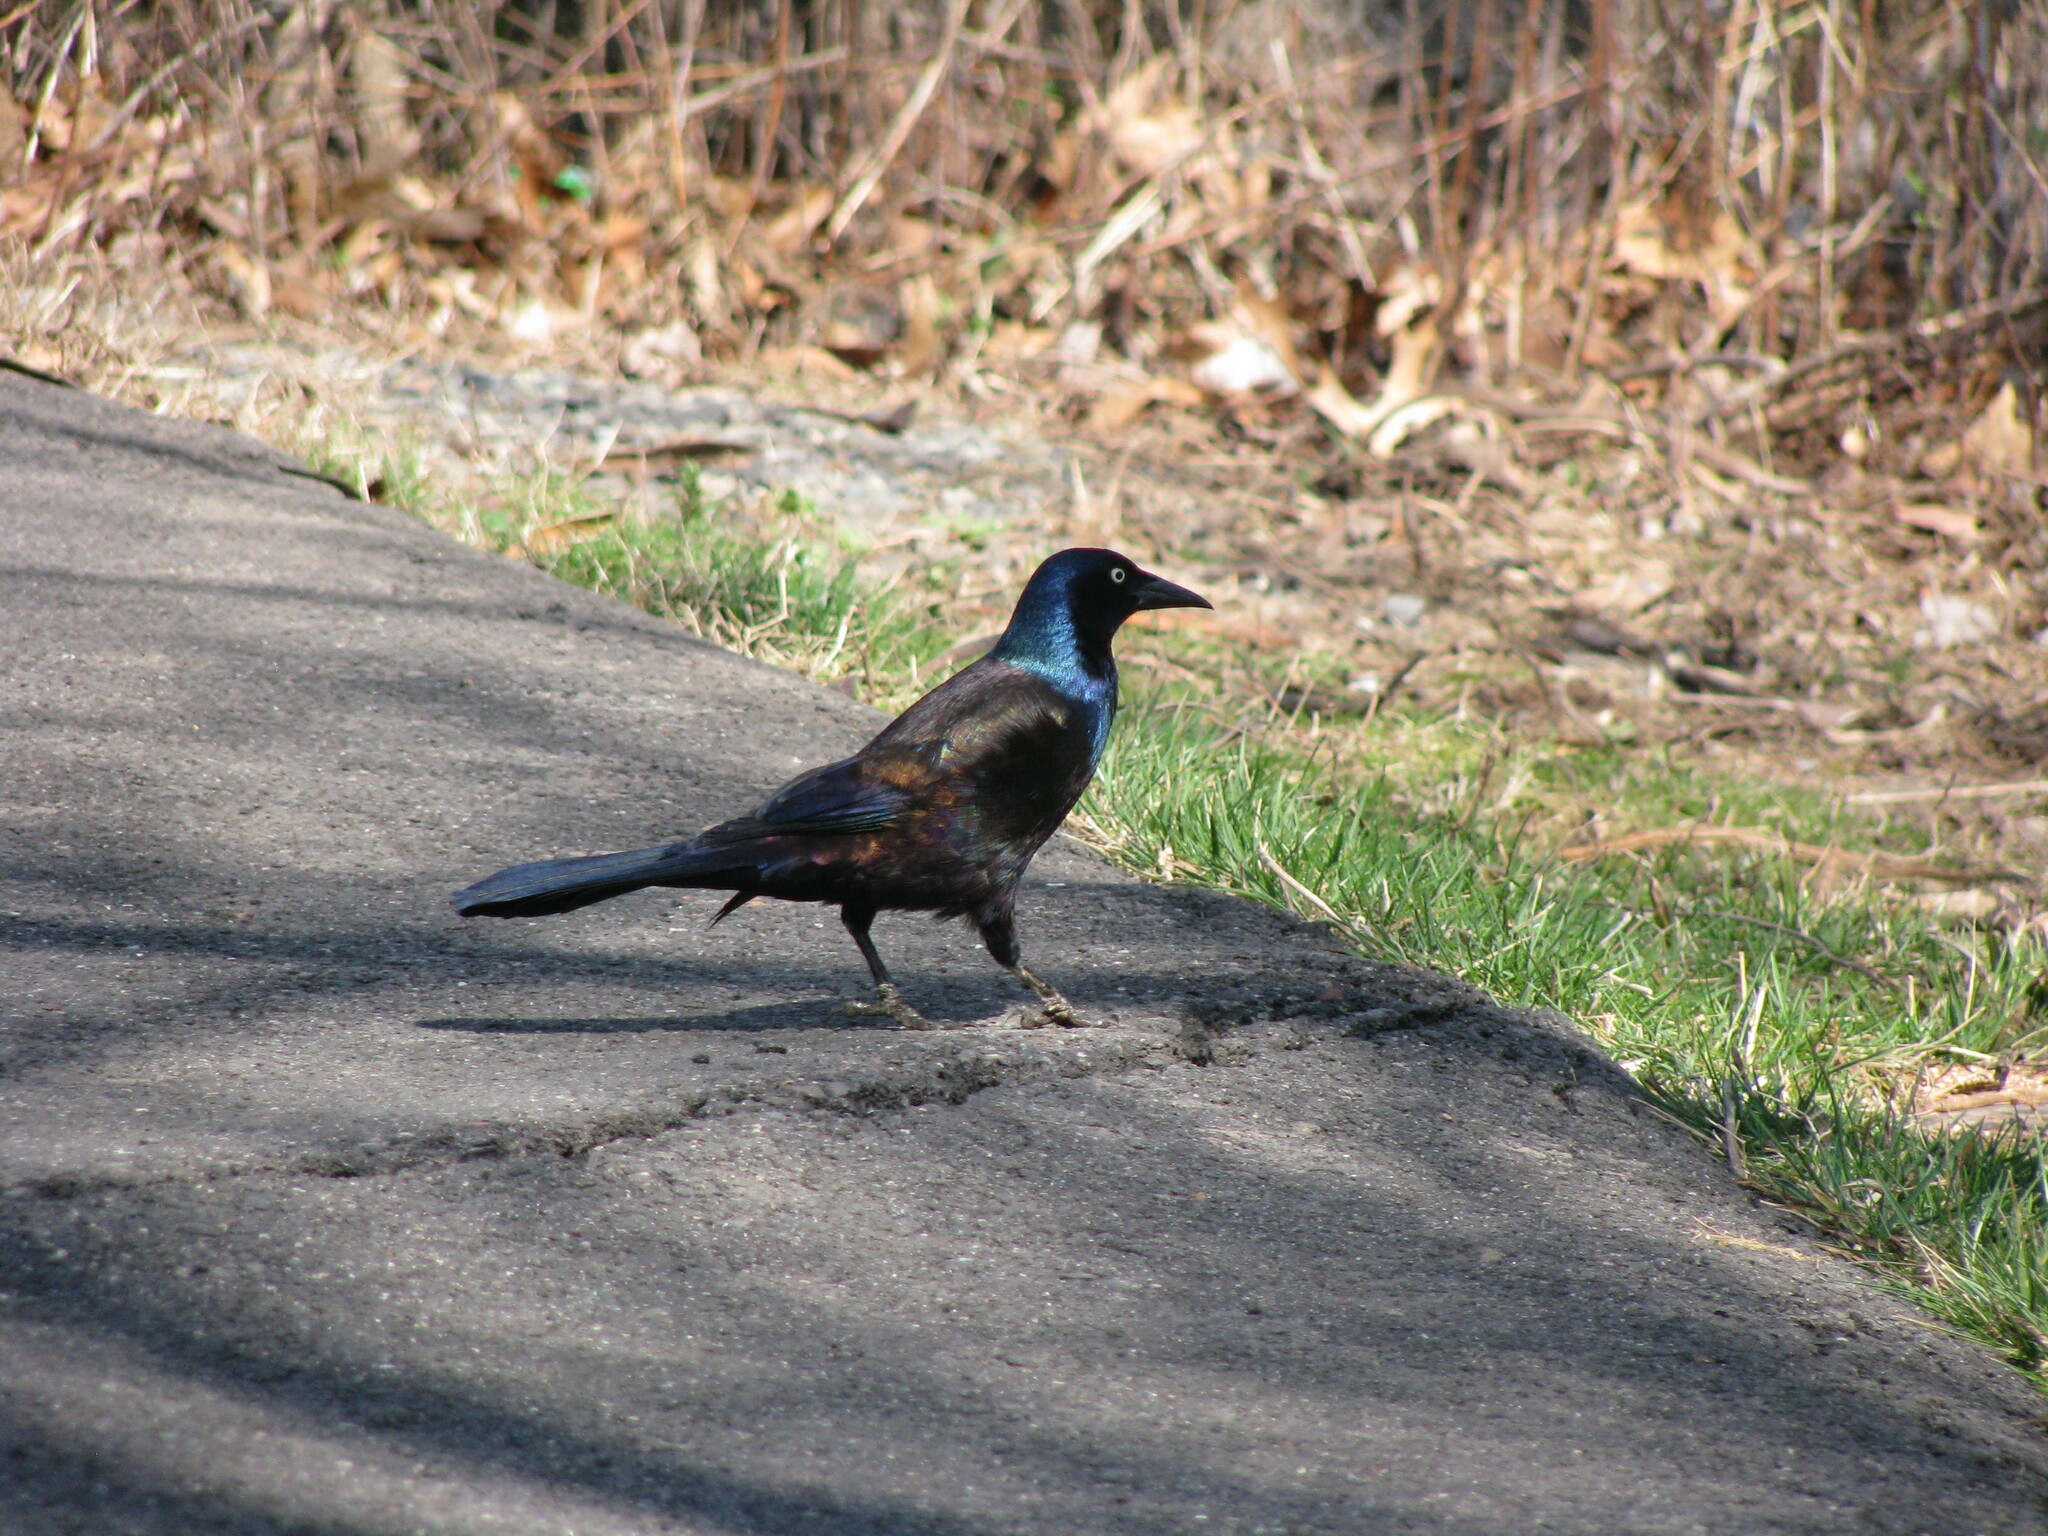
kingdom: Animalia
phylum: Chordata
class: Aves
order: Passeriformes
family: Icteridae
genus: Quiscalus
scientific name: Quiscalus quiscula
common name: Common grackle
